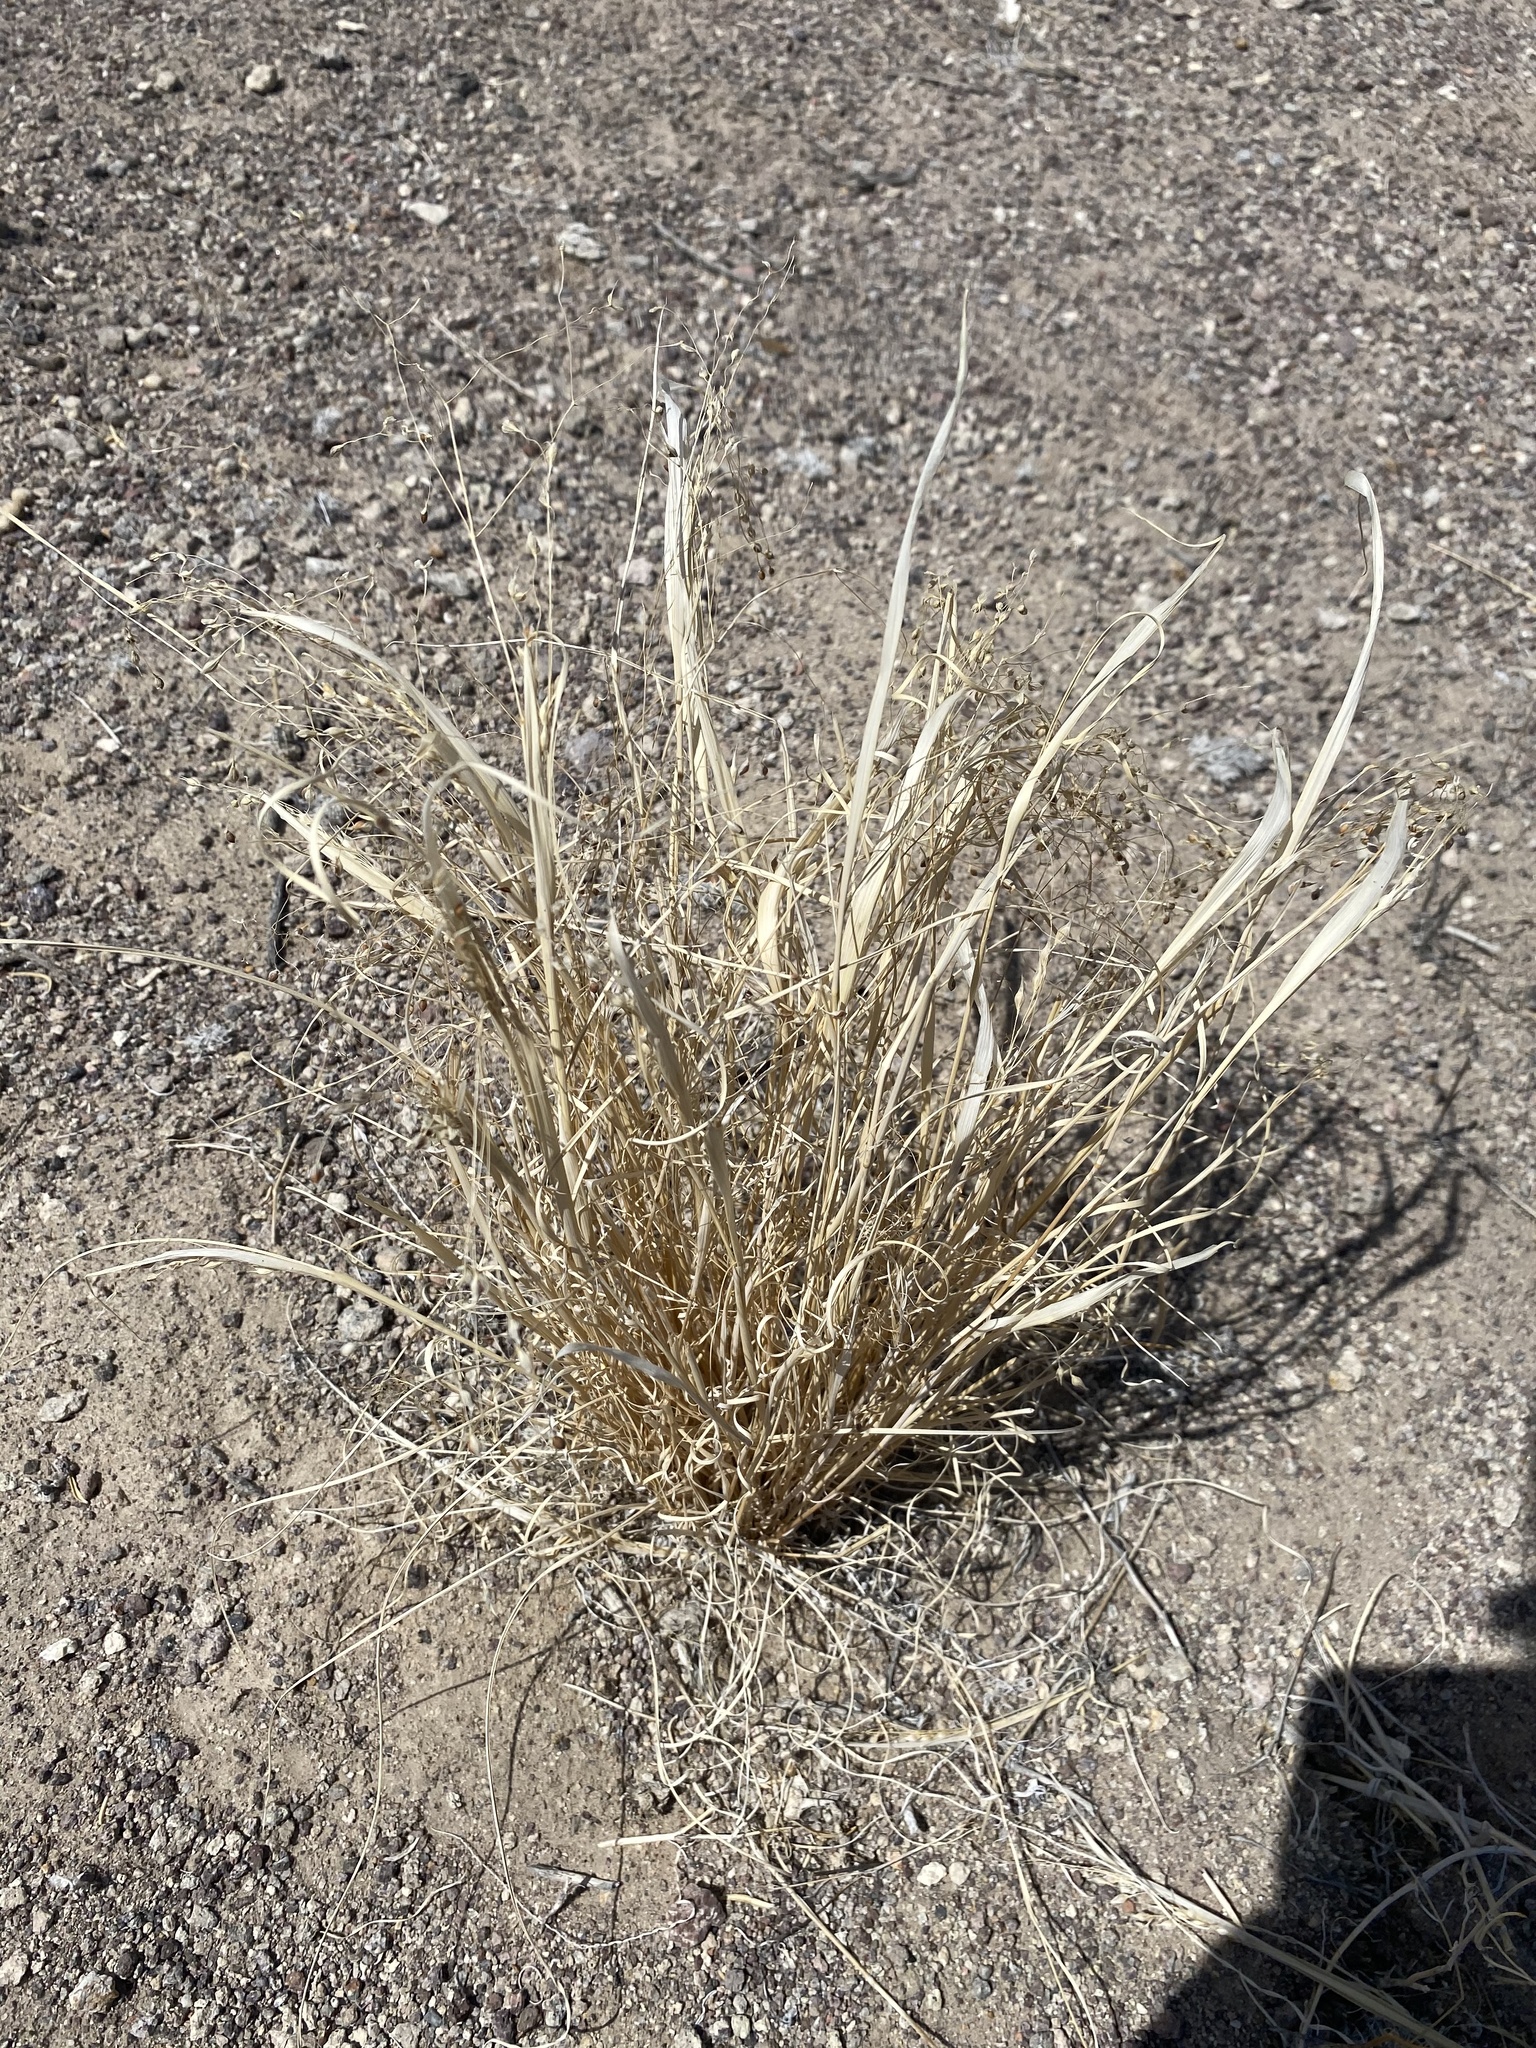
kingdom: Plantae
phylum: Tracheophyta
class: Liliopsida
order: Poales
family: Poaceae
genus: Eriocoma
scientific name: Eriocoma hymenoides
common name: Indian mountain ricegrass
